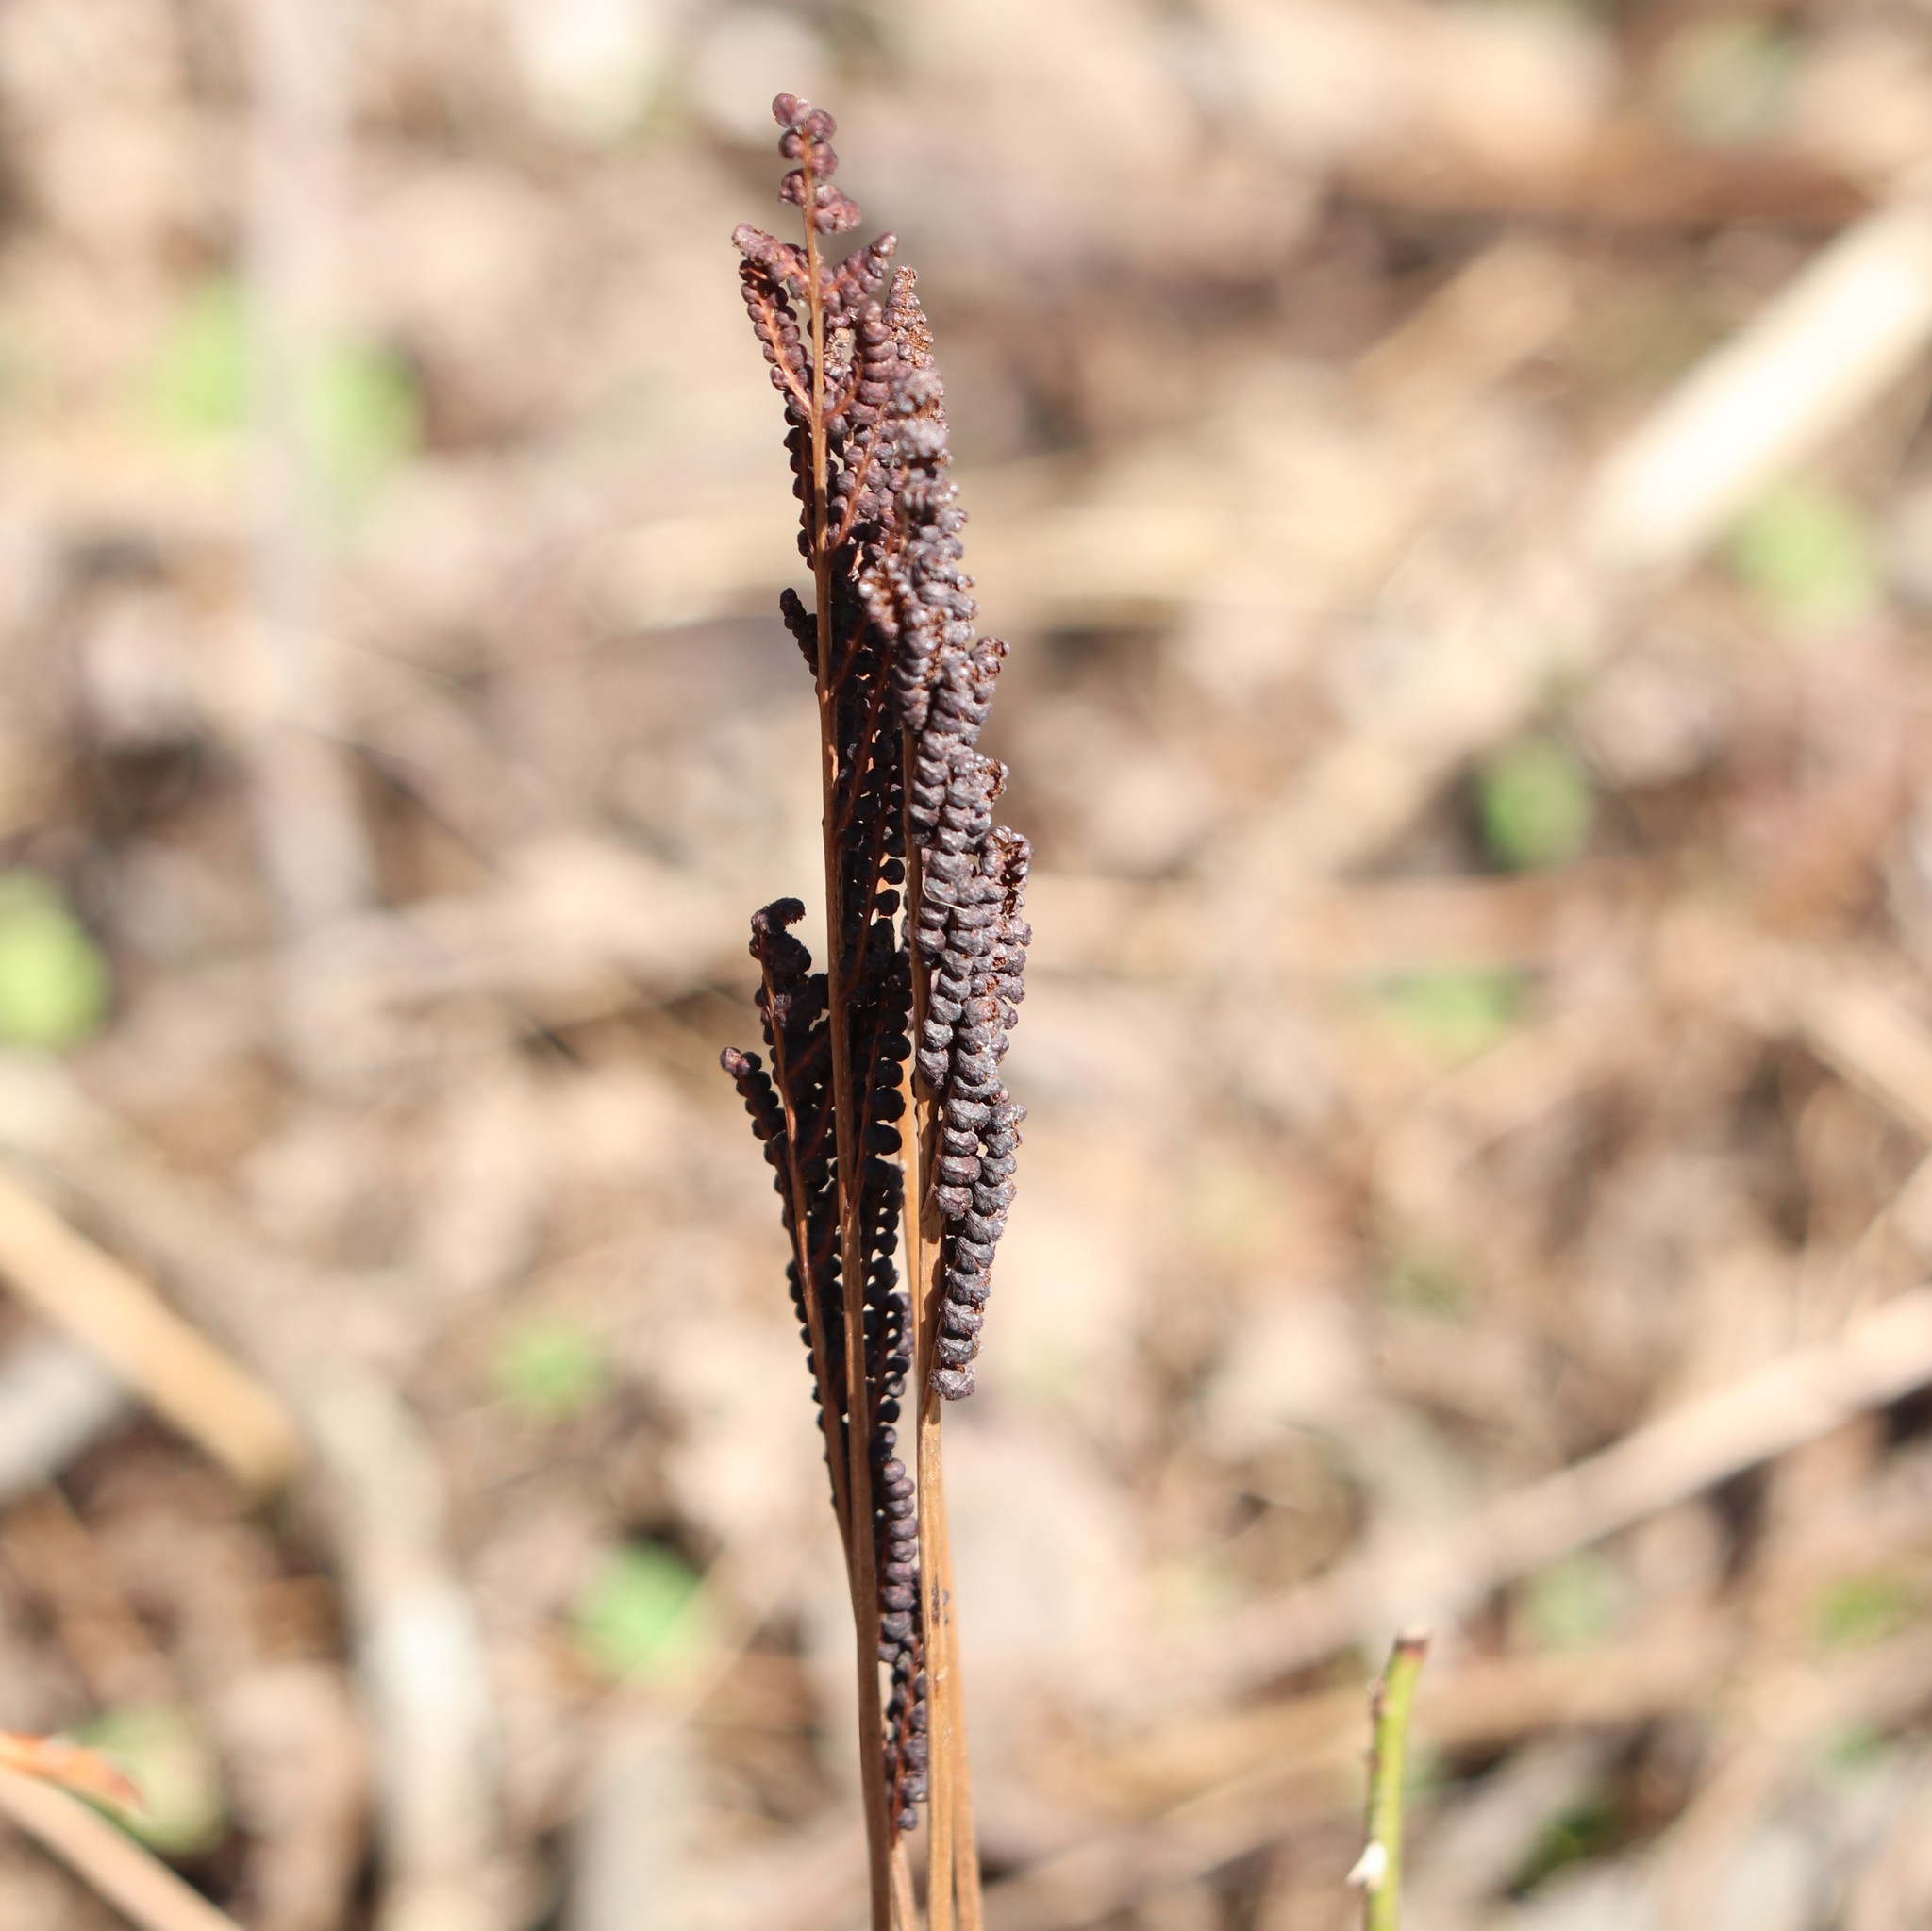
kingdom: Plantae
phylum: Tracheophyta
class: Polypodiopsida
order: Polypodiales
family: Onocleaceae
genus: Onoclea
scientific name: Onoclea sensibilis
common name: Sensitive fern
